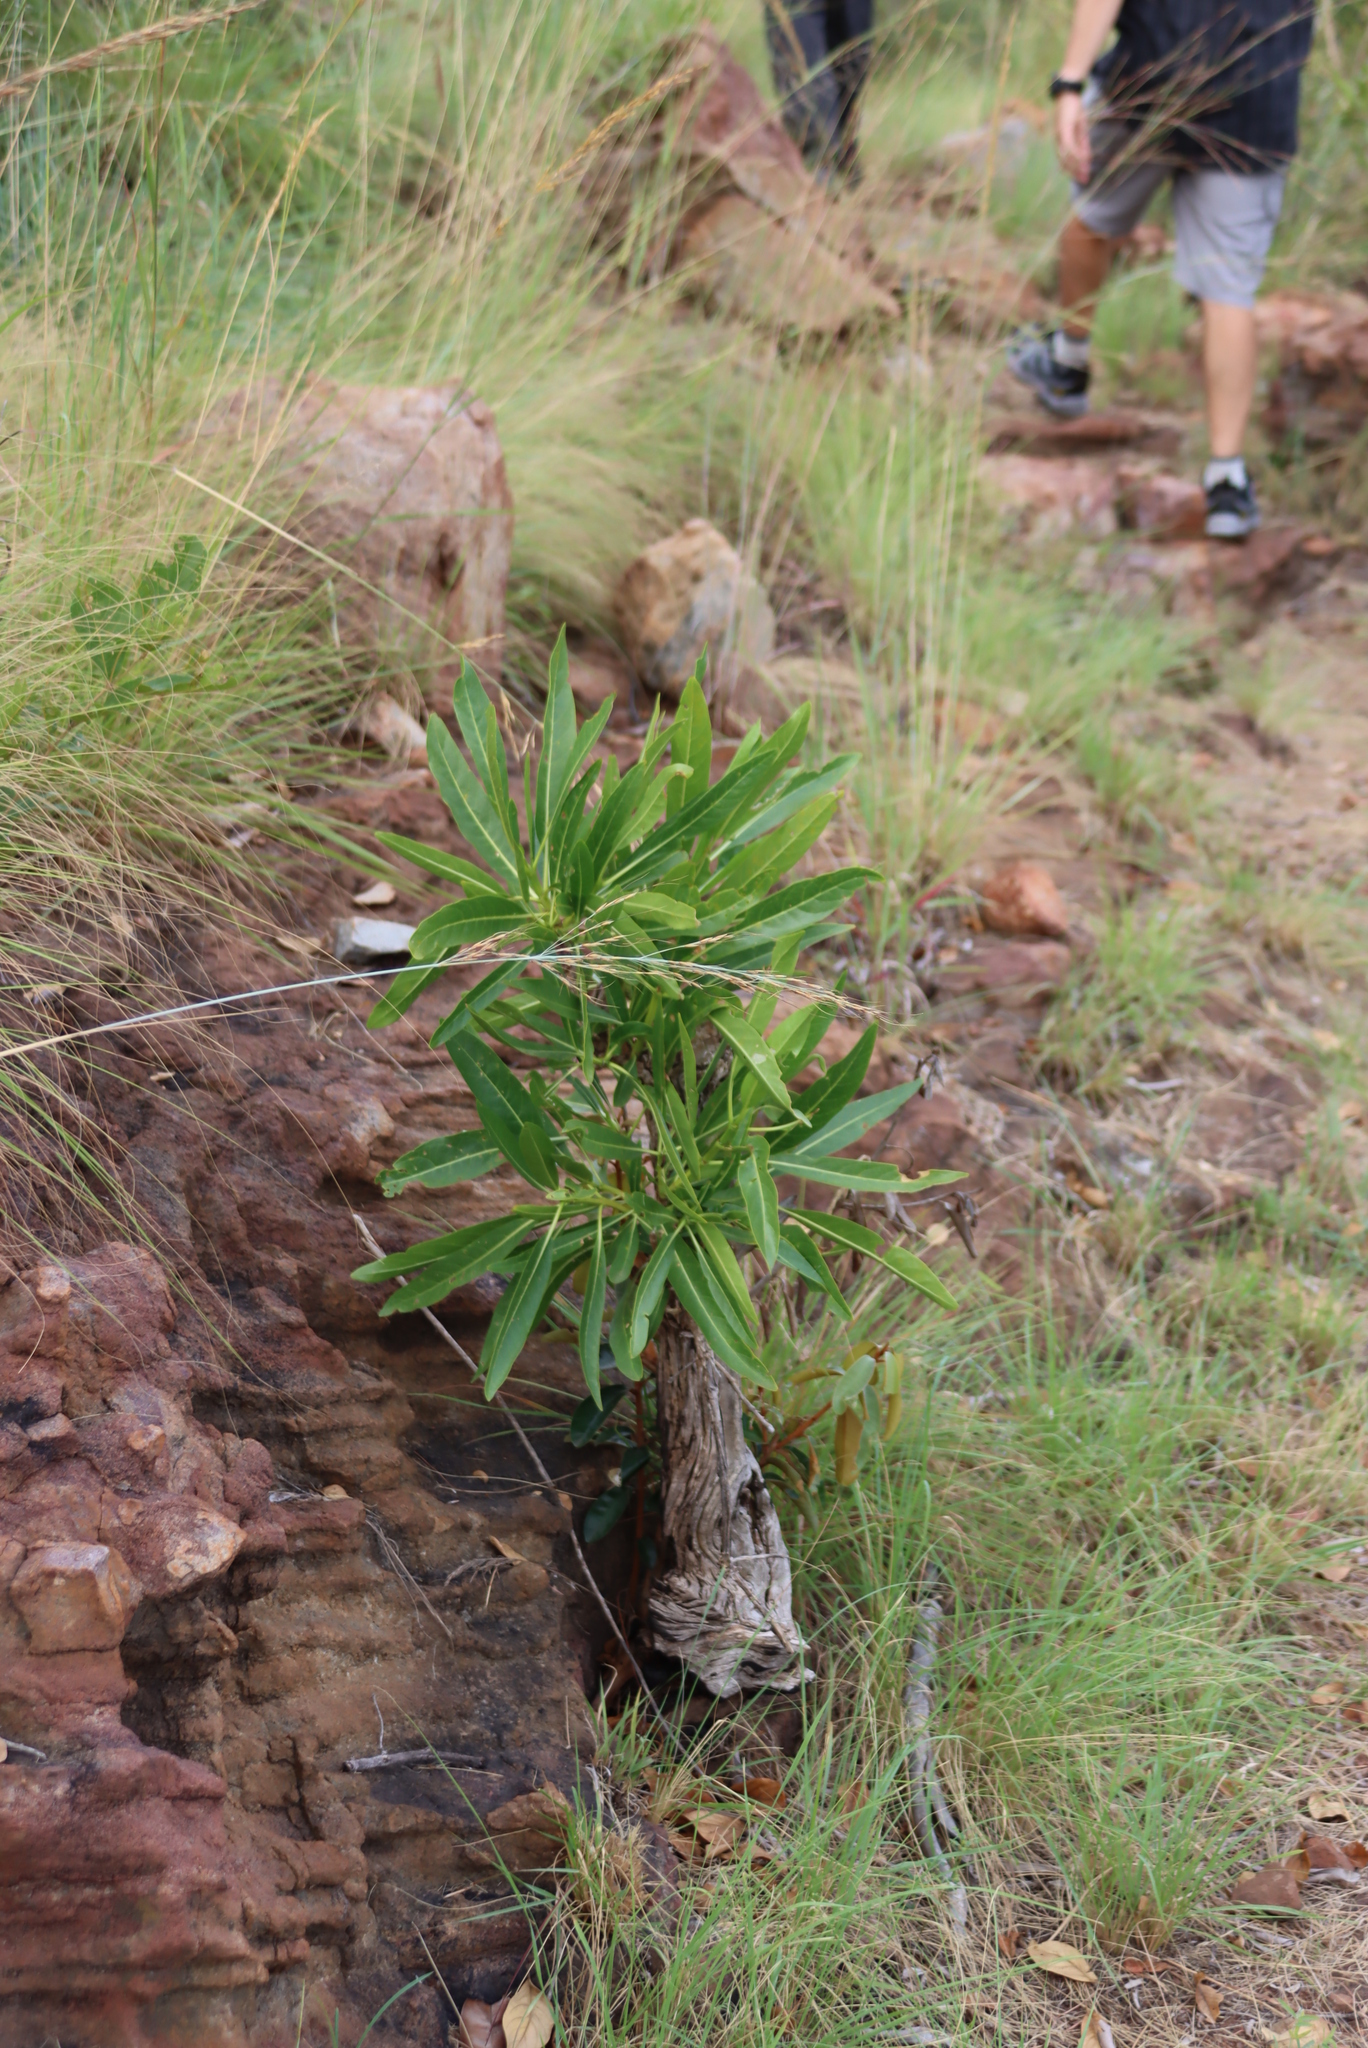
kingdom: Plantae
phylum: Tracheophyta
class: Magnoliopsida
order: Gentianales
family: Rubiaceae
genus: Pavetta
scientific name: Pavetta edentula
